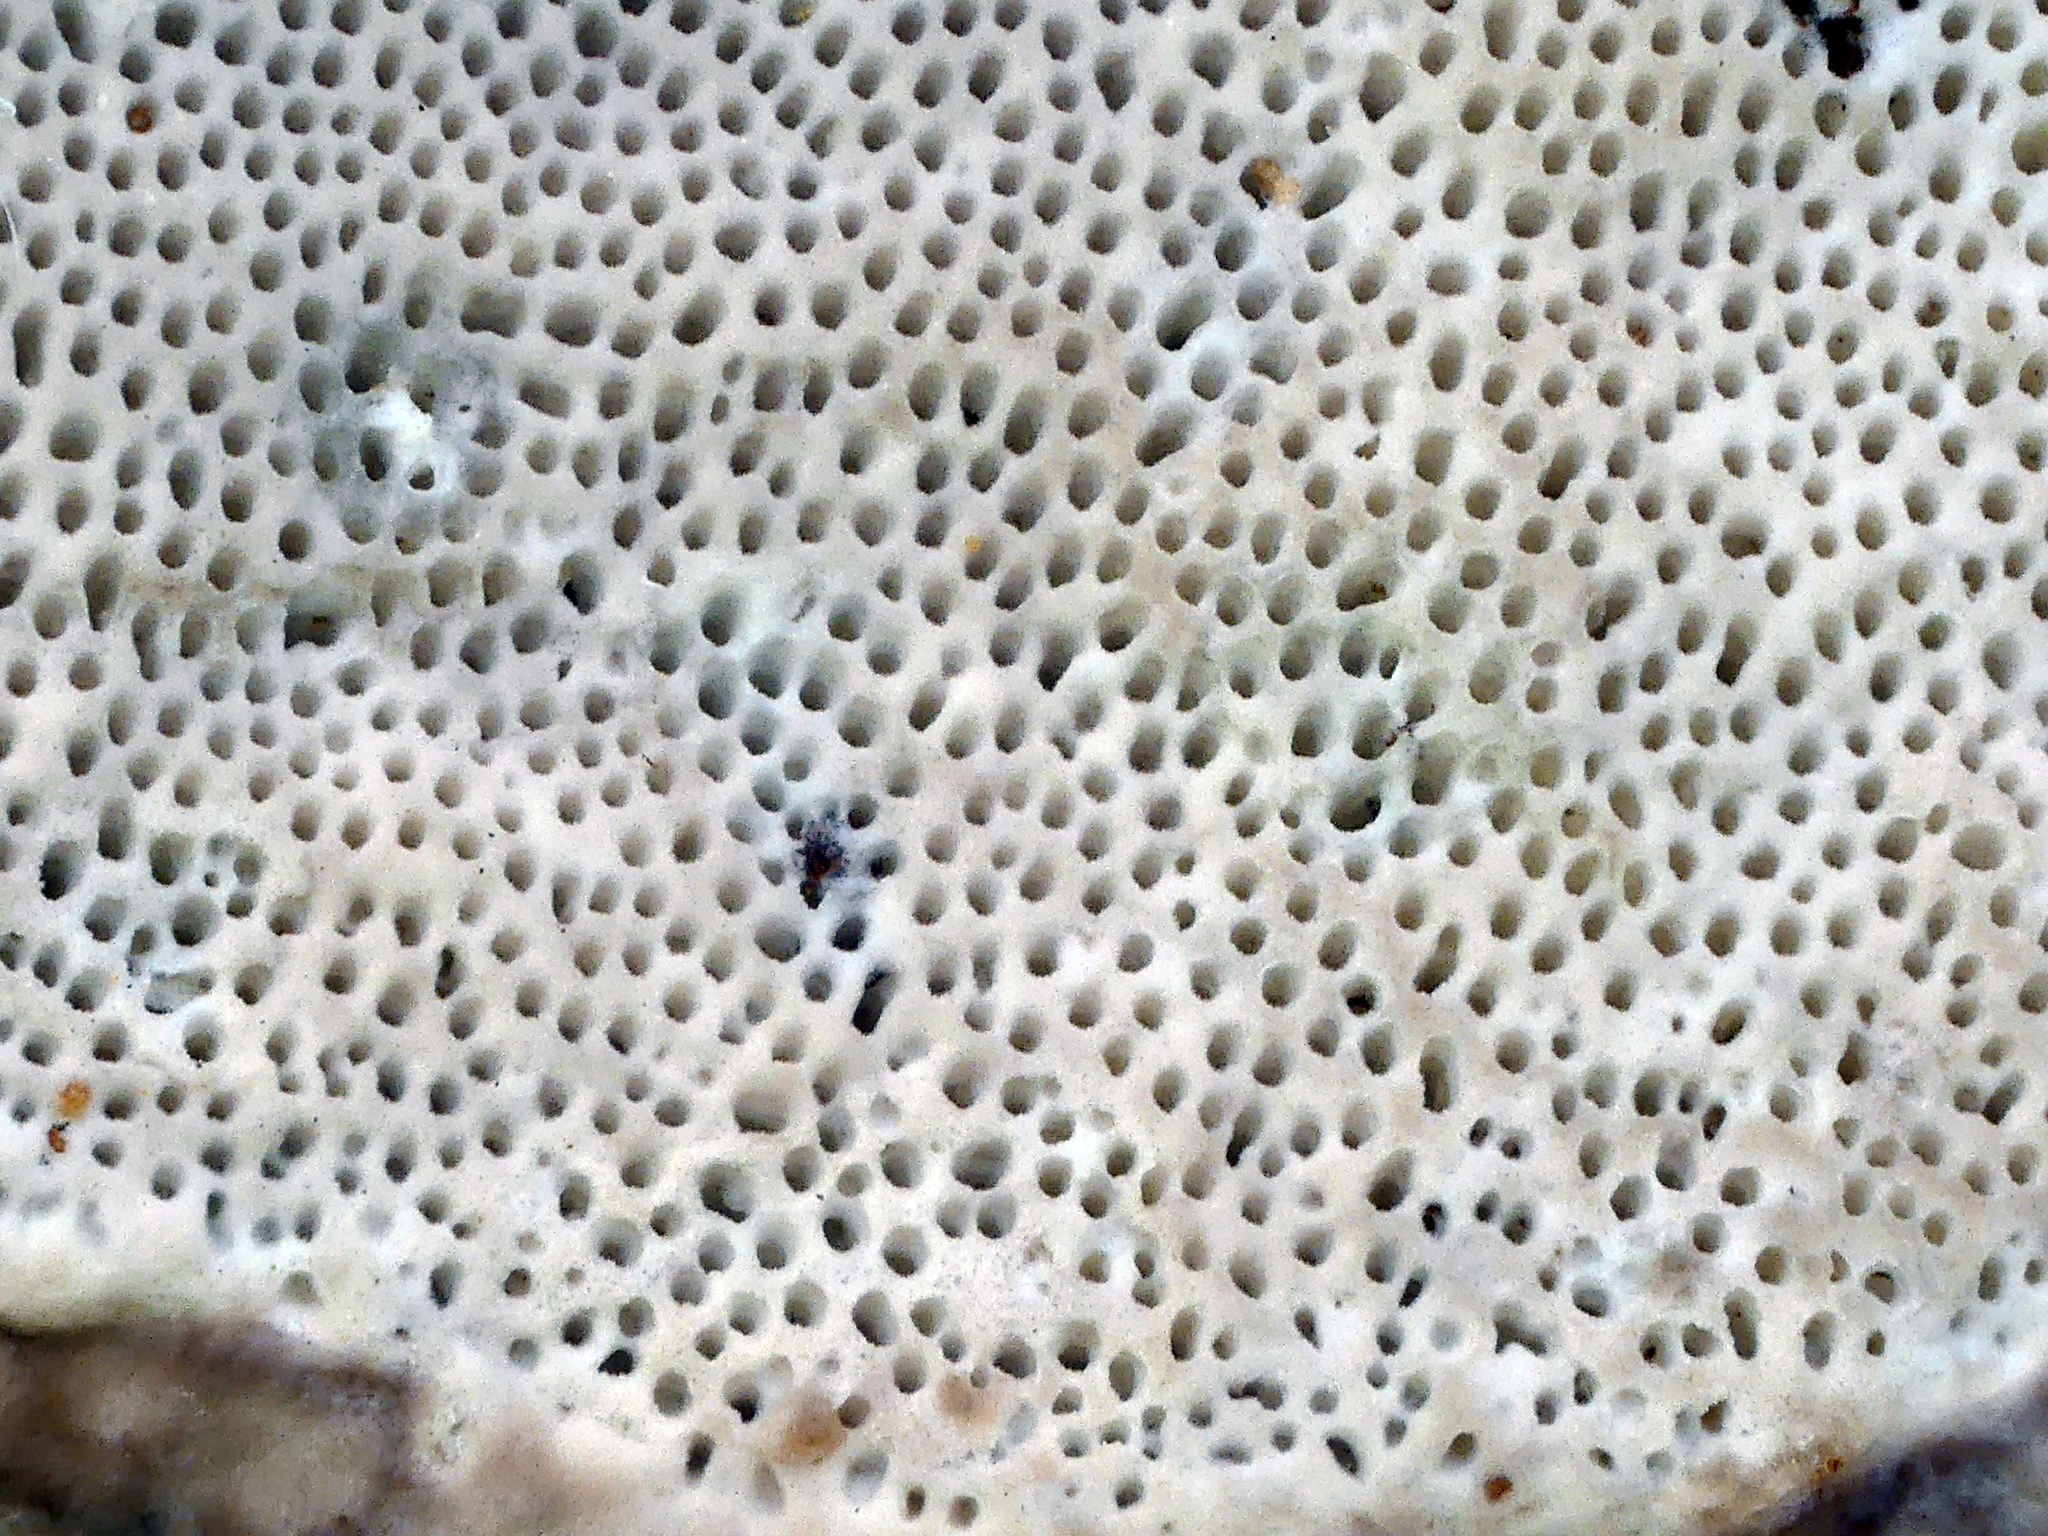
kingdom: Fungi
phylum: Basidiomycota
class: Agaricomycetes
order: Polyporales
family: Fomitopsidaceae
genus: Fomitopsis
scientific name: Fomitopsis pinicola
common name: Red-belted bracket
